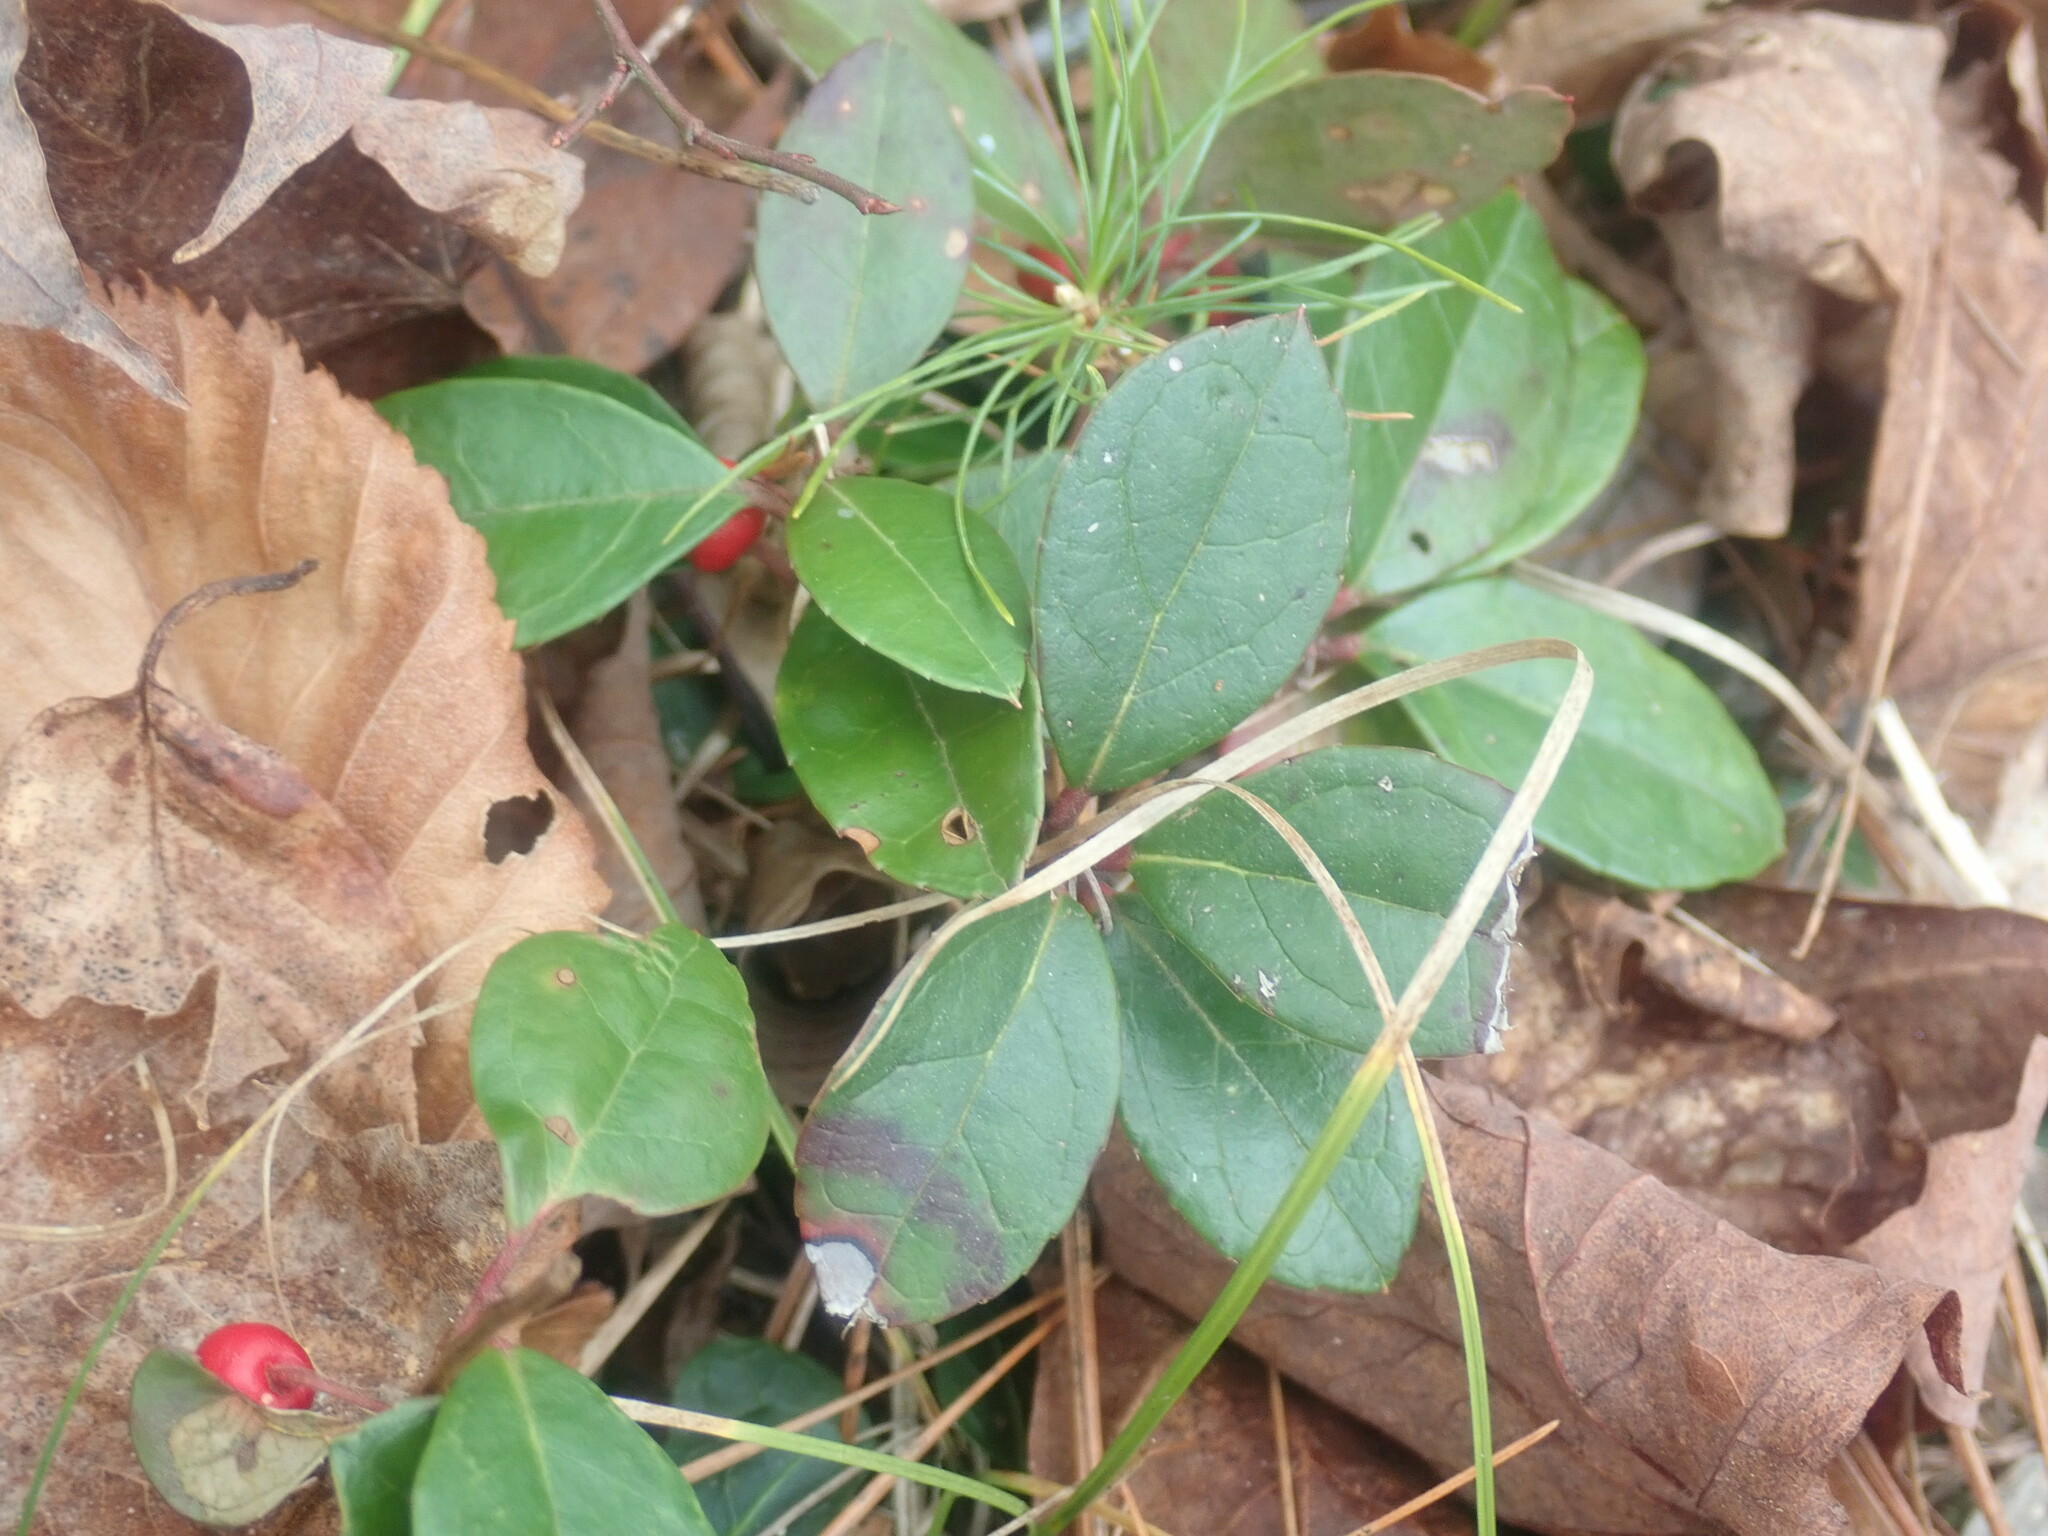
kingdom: Plantae
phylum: Tracheophyta
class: Magnoliopsida
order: Ericales
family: Ericaceae
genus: Gaultheria
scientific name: Gaultheria procumbens
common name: Checkerberry
